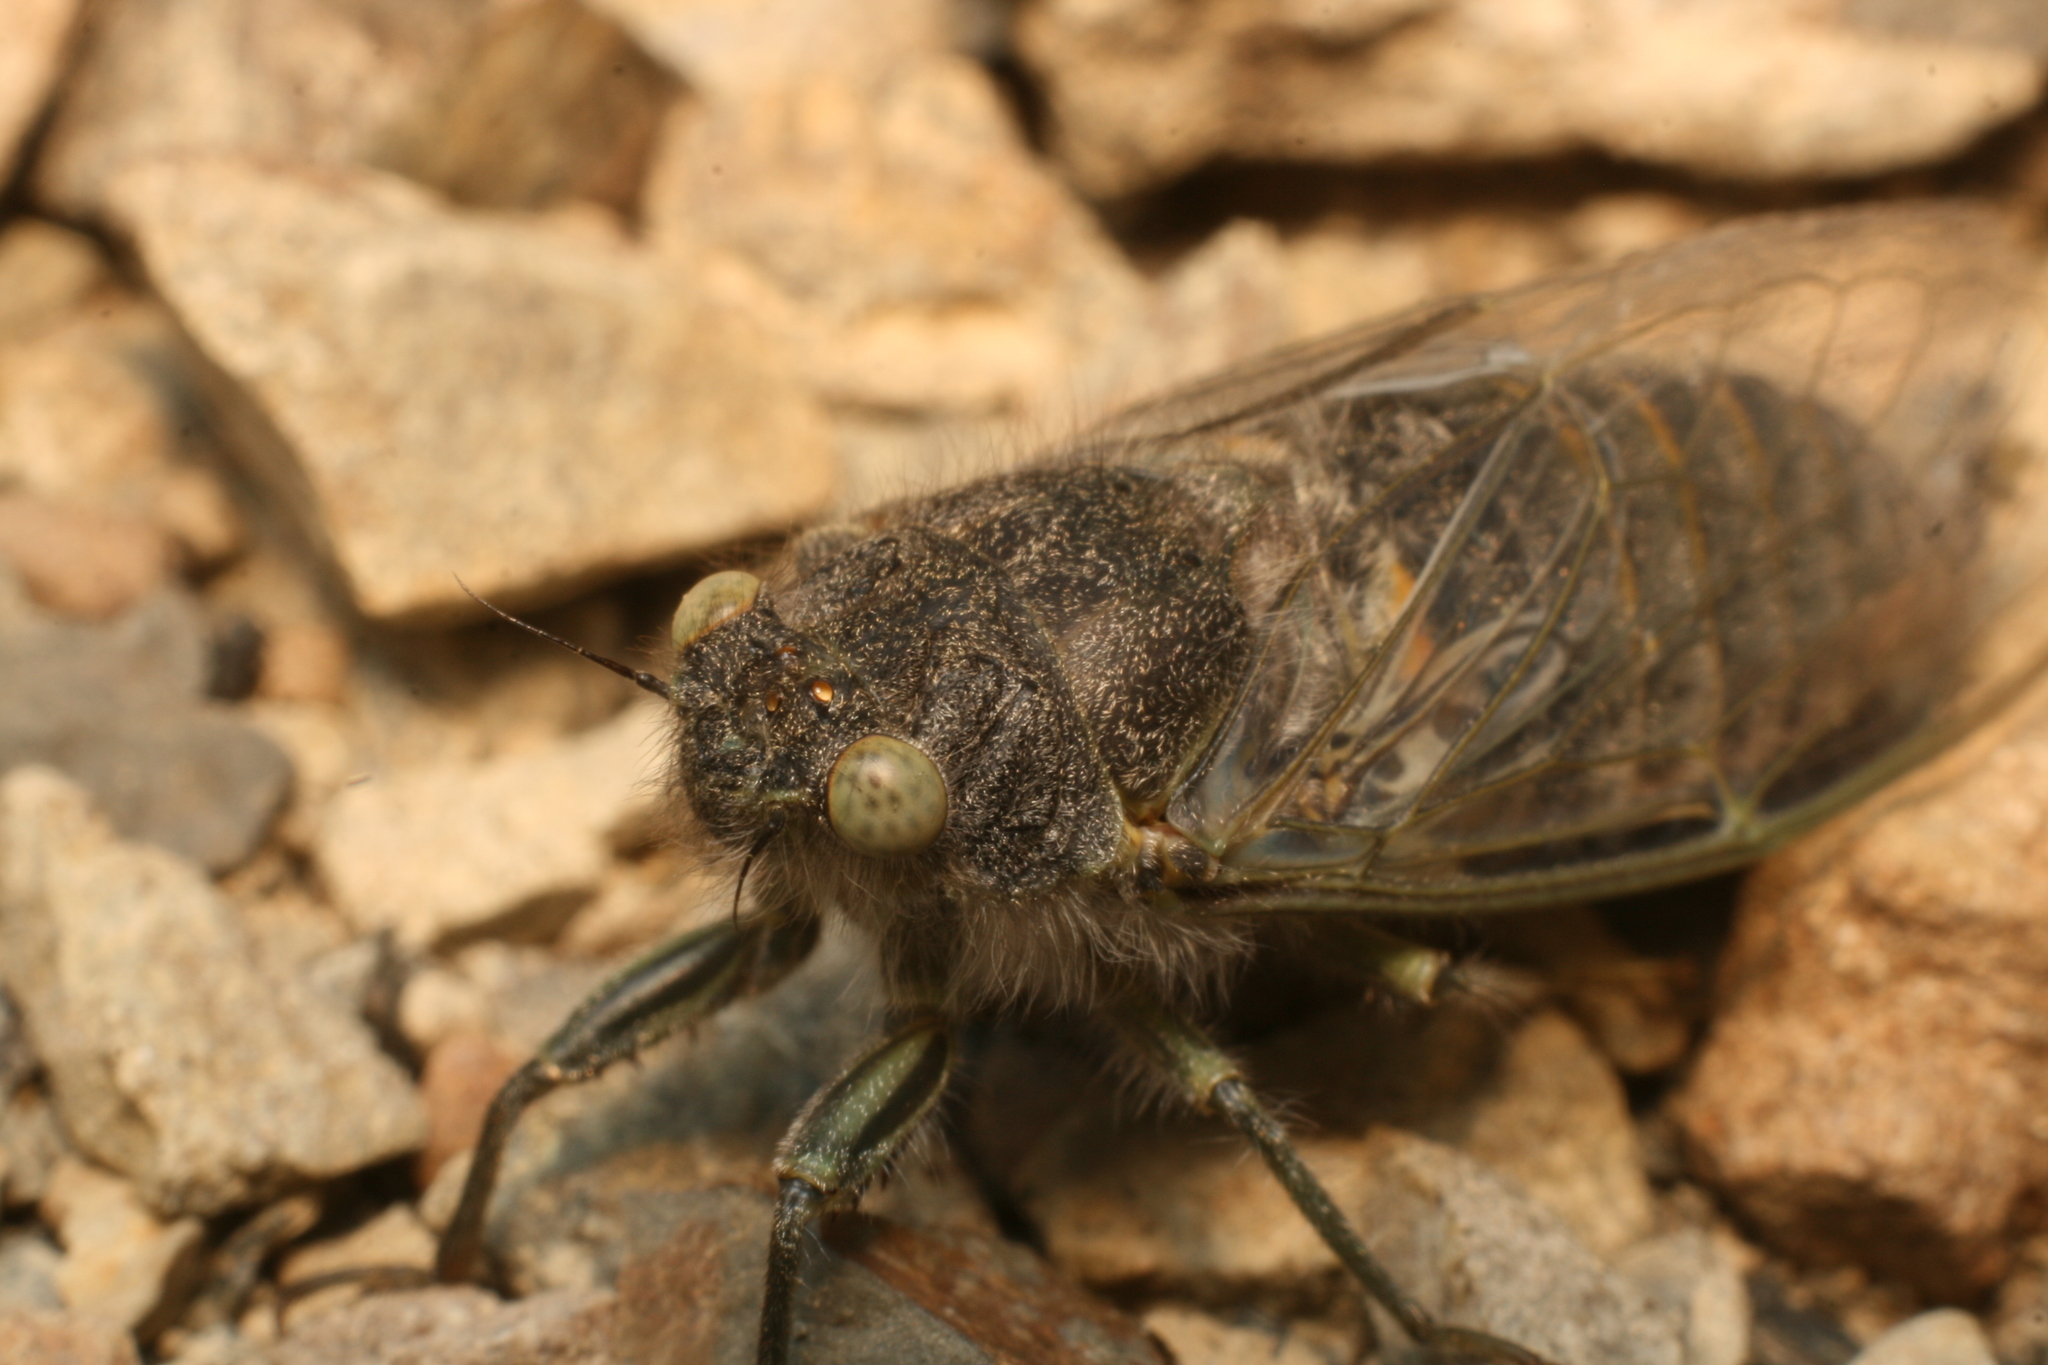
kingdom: Animalia
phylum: Arthropoda
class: Insecta
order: Hemiptera
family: Cicadidae
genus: Maoricicada
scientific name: Maoricicada mangu
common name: Canterbury scree cicada
